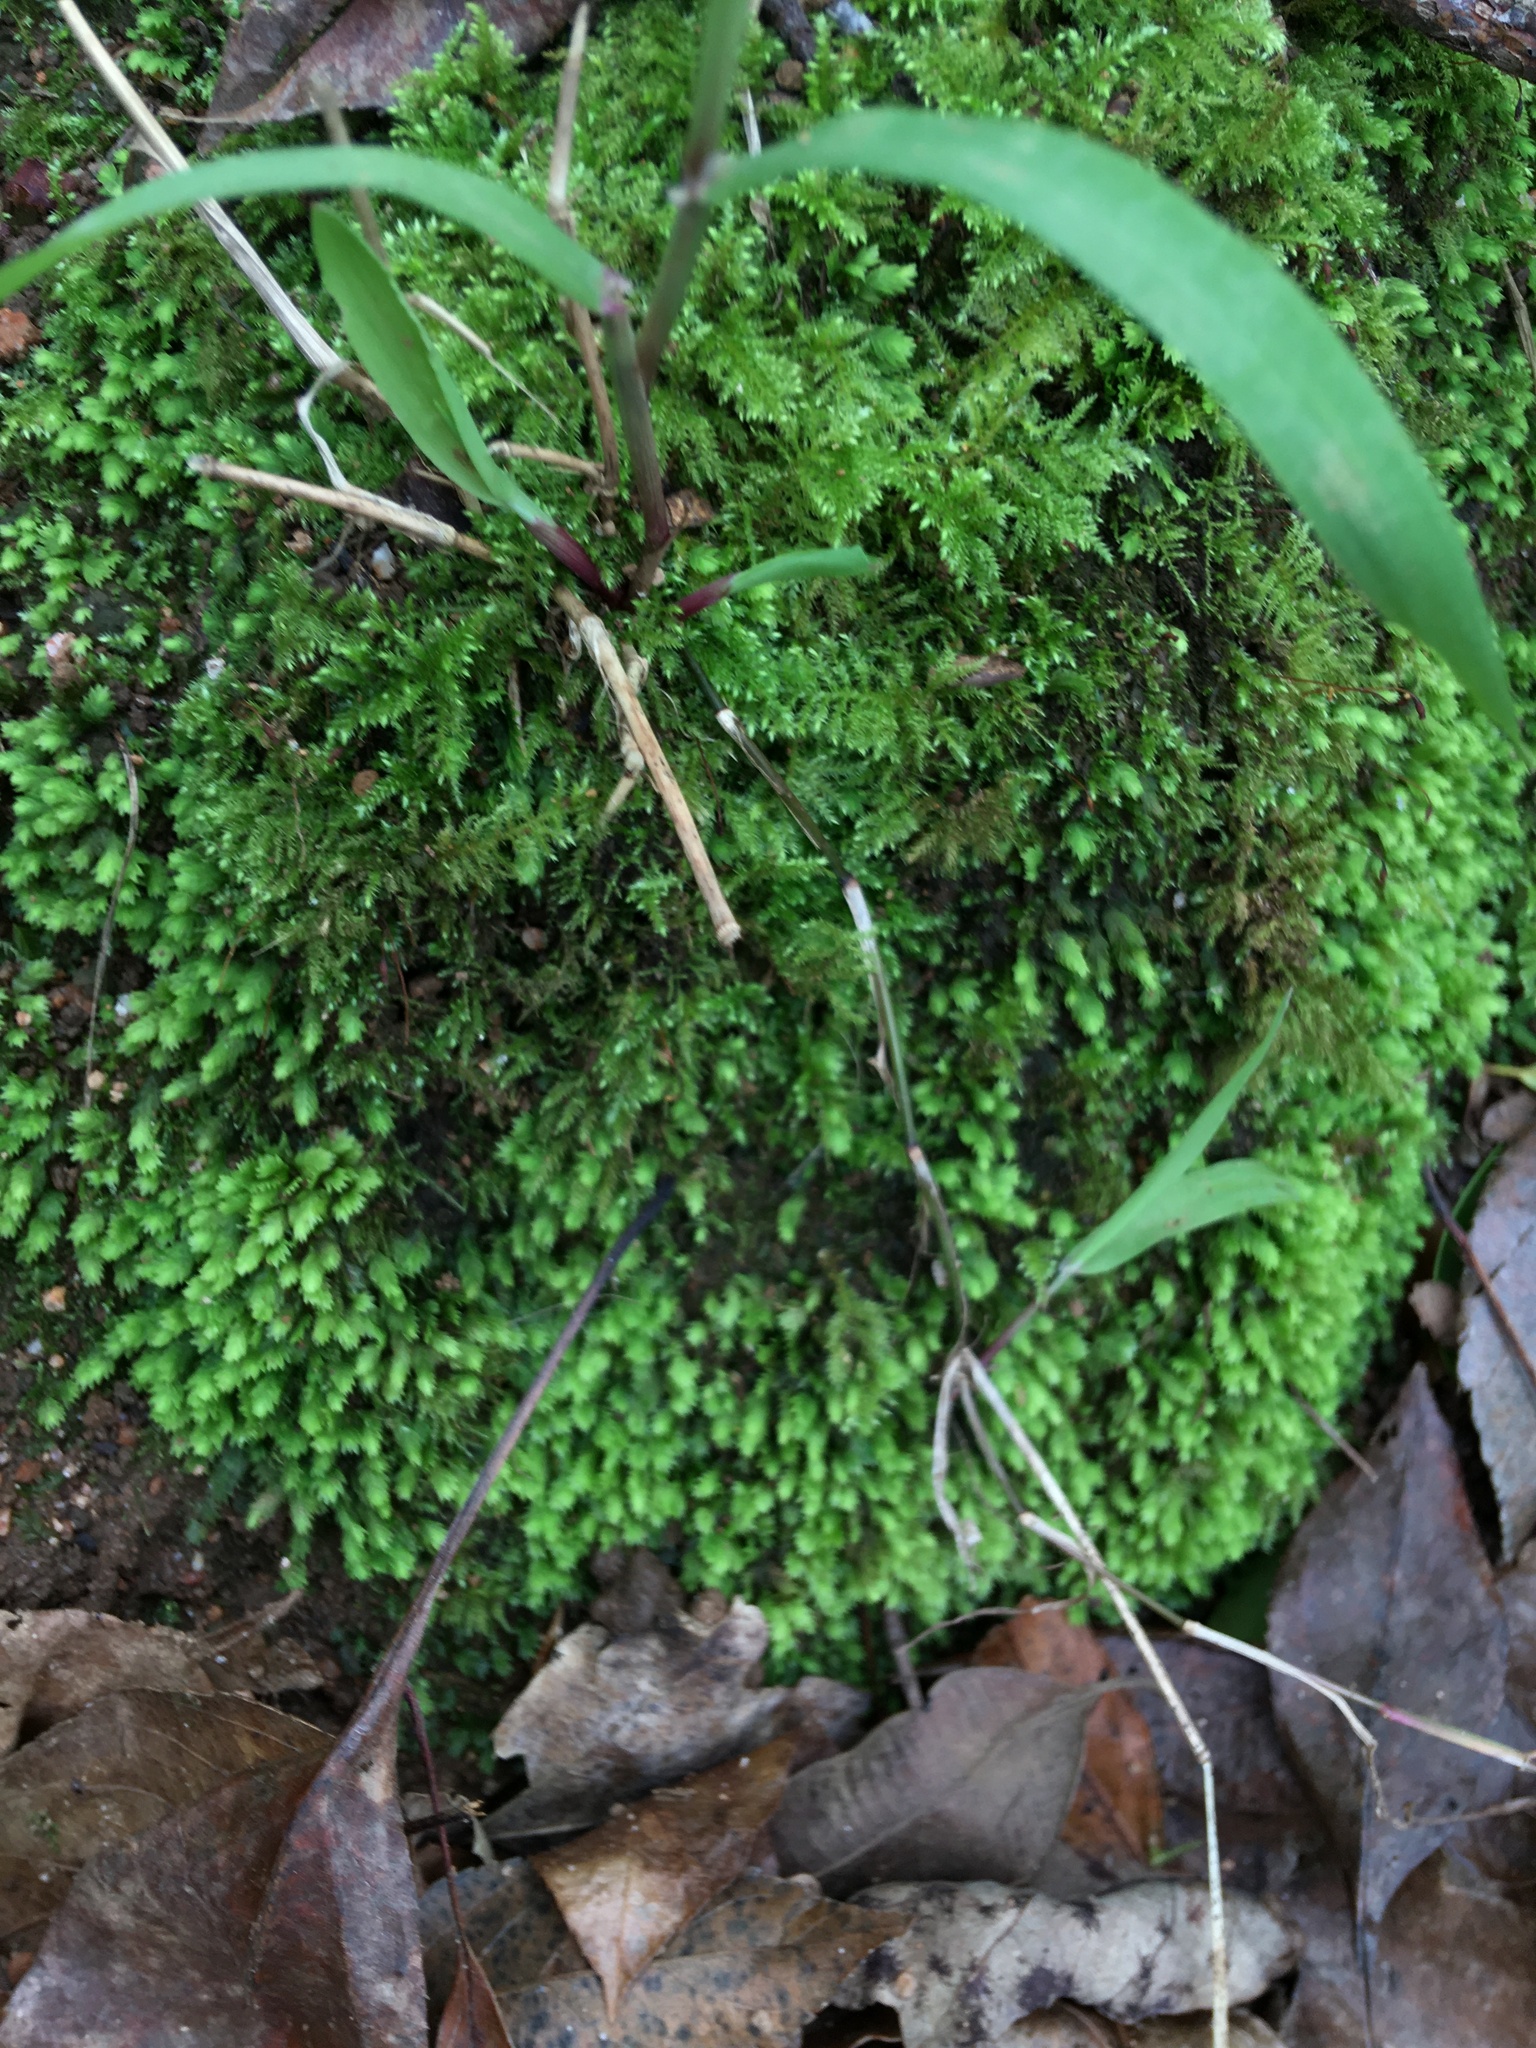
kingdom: Plantae
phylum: Bryophyta
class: Bryopsida
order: Hypnales
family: Brachytheciaceae
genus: Kindbergia
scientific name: Kindbergia praelonga
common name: Slender beaked moss
